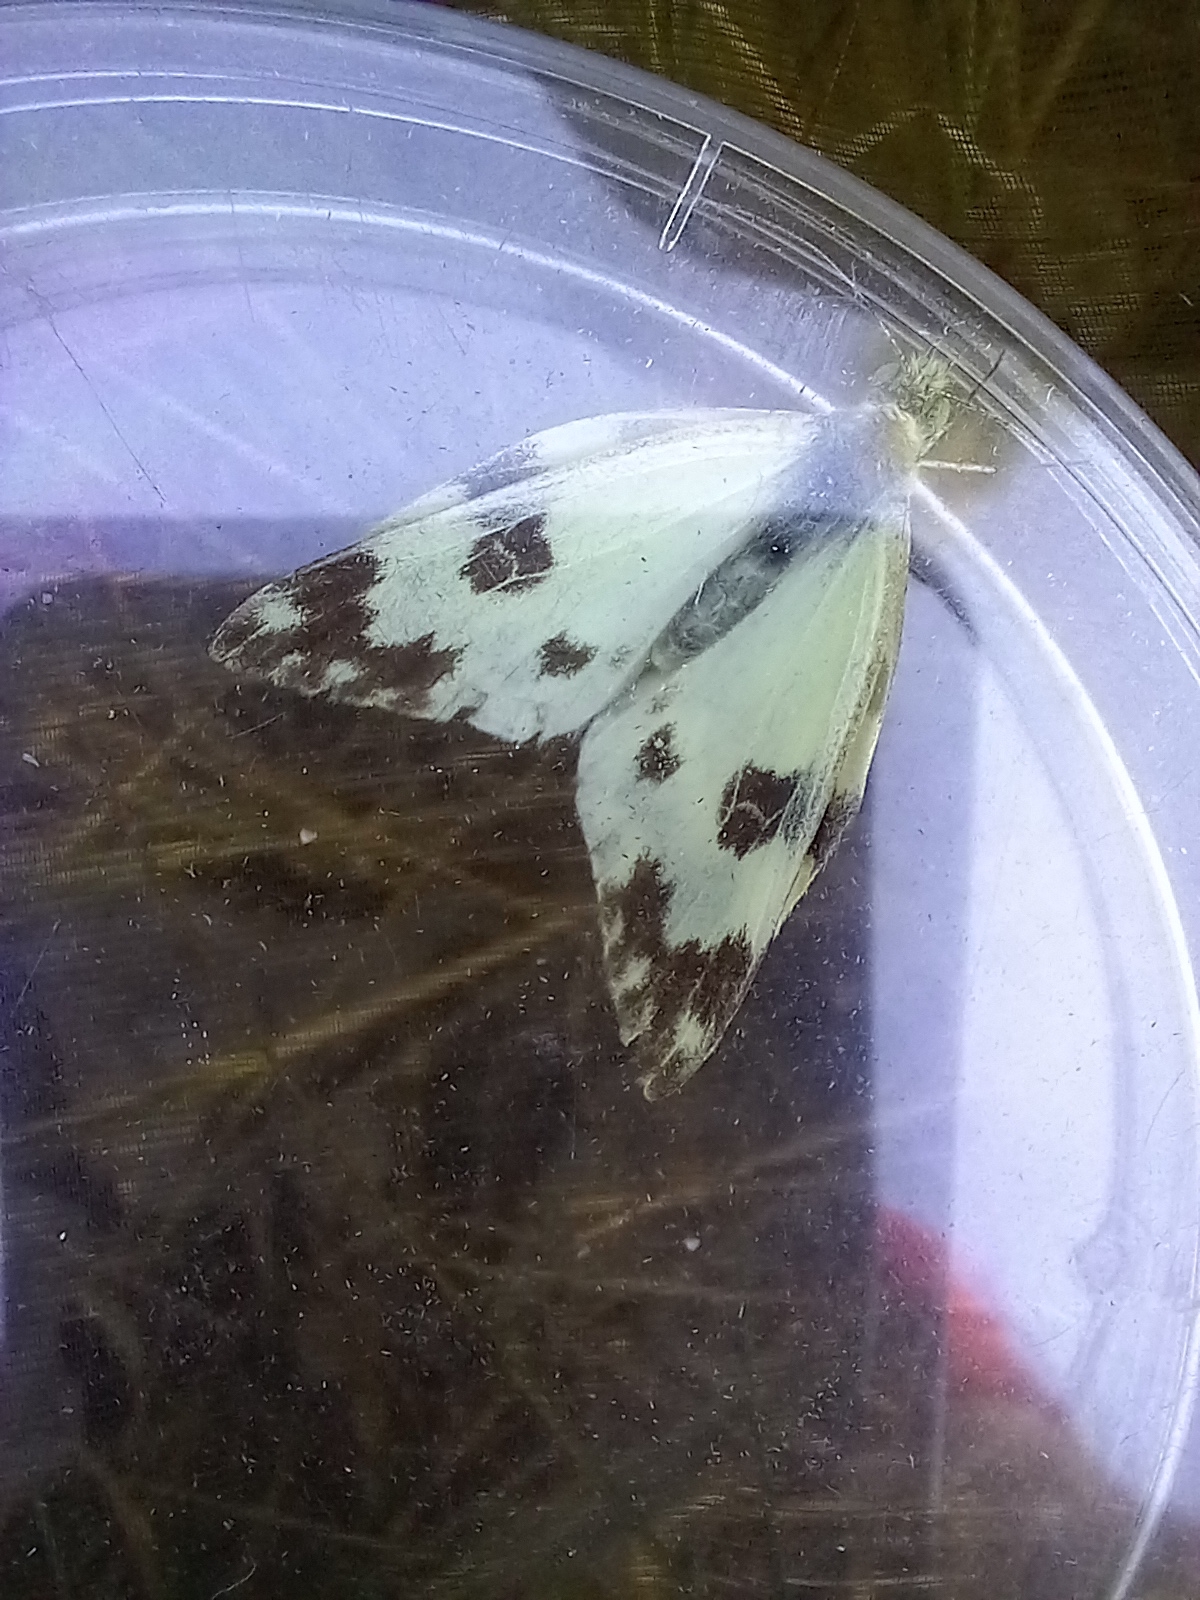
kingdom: Animalia
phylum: Arthropoda
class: Insecta
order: Lepidoptera
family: Pieridae
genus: Pontia
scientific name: Pontia daplidice
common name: Bath white
